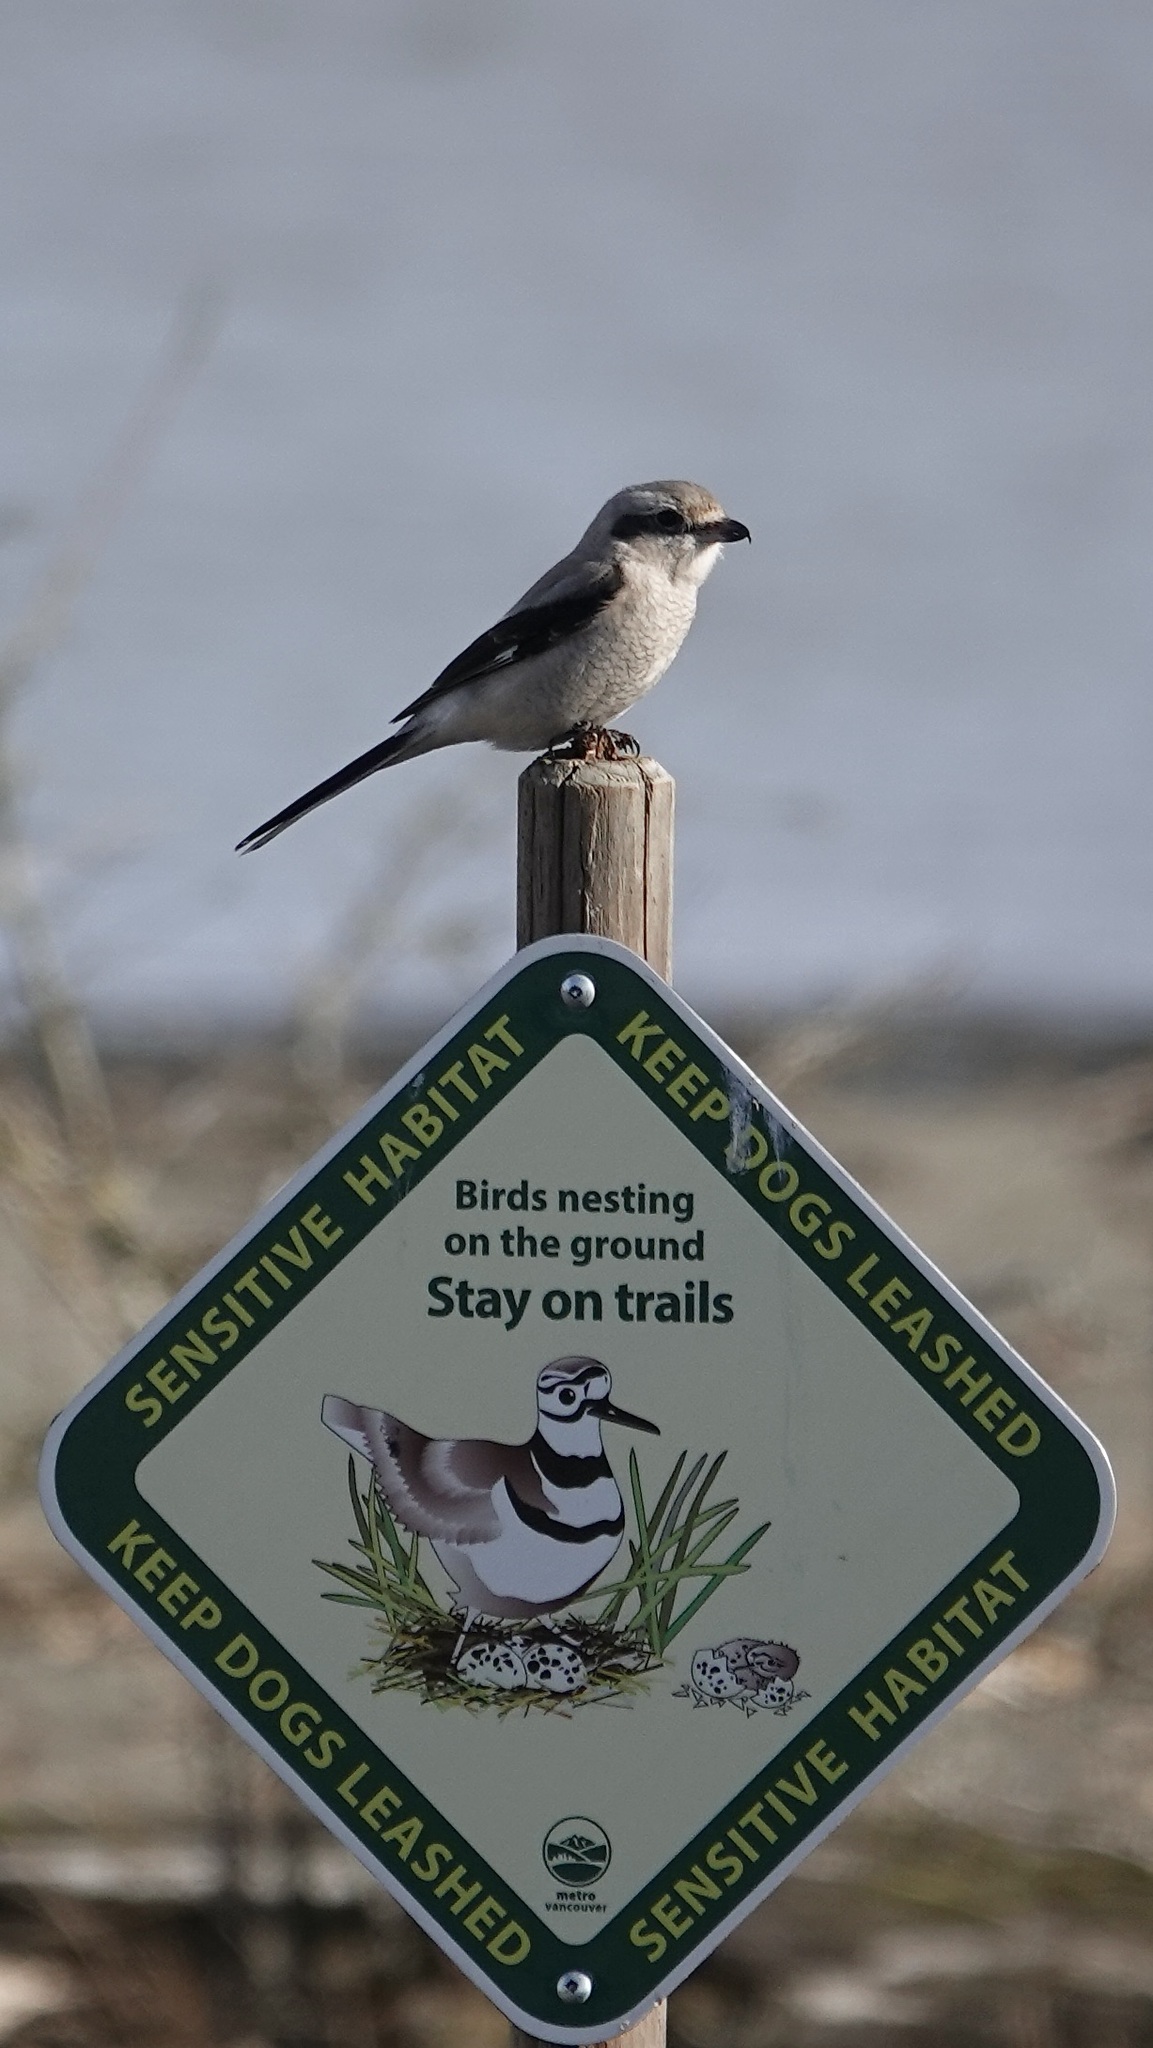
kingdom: Animalia
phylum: Chordata
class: Aves
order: Passeriformes
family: Laniidae
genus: Lanius
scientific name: Lanius borealis
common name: Northern shrike
